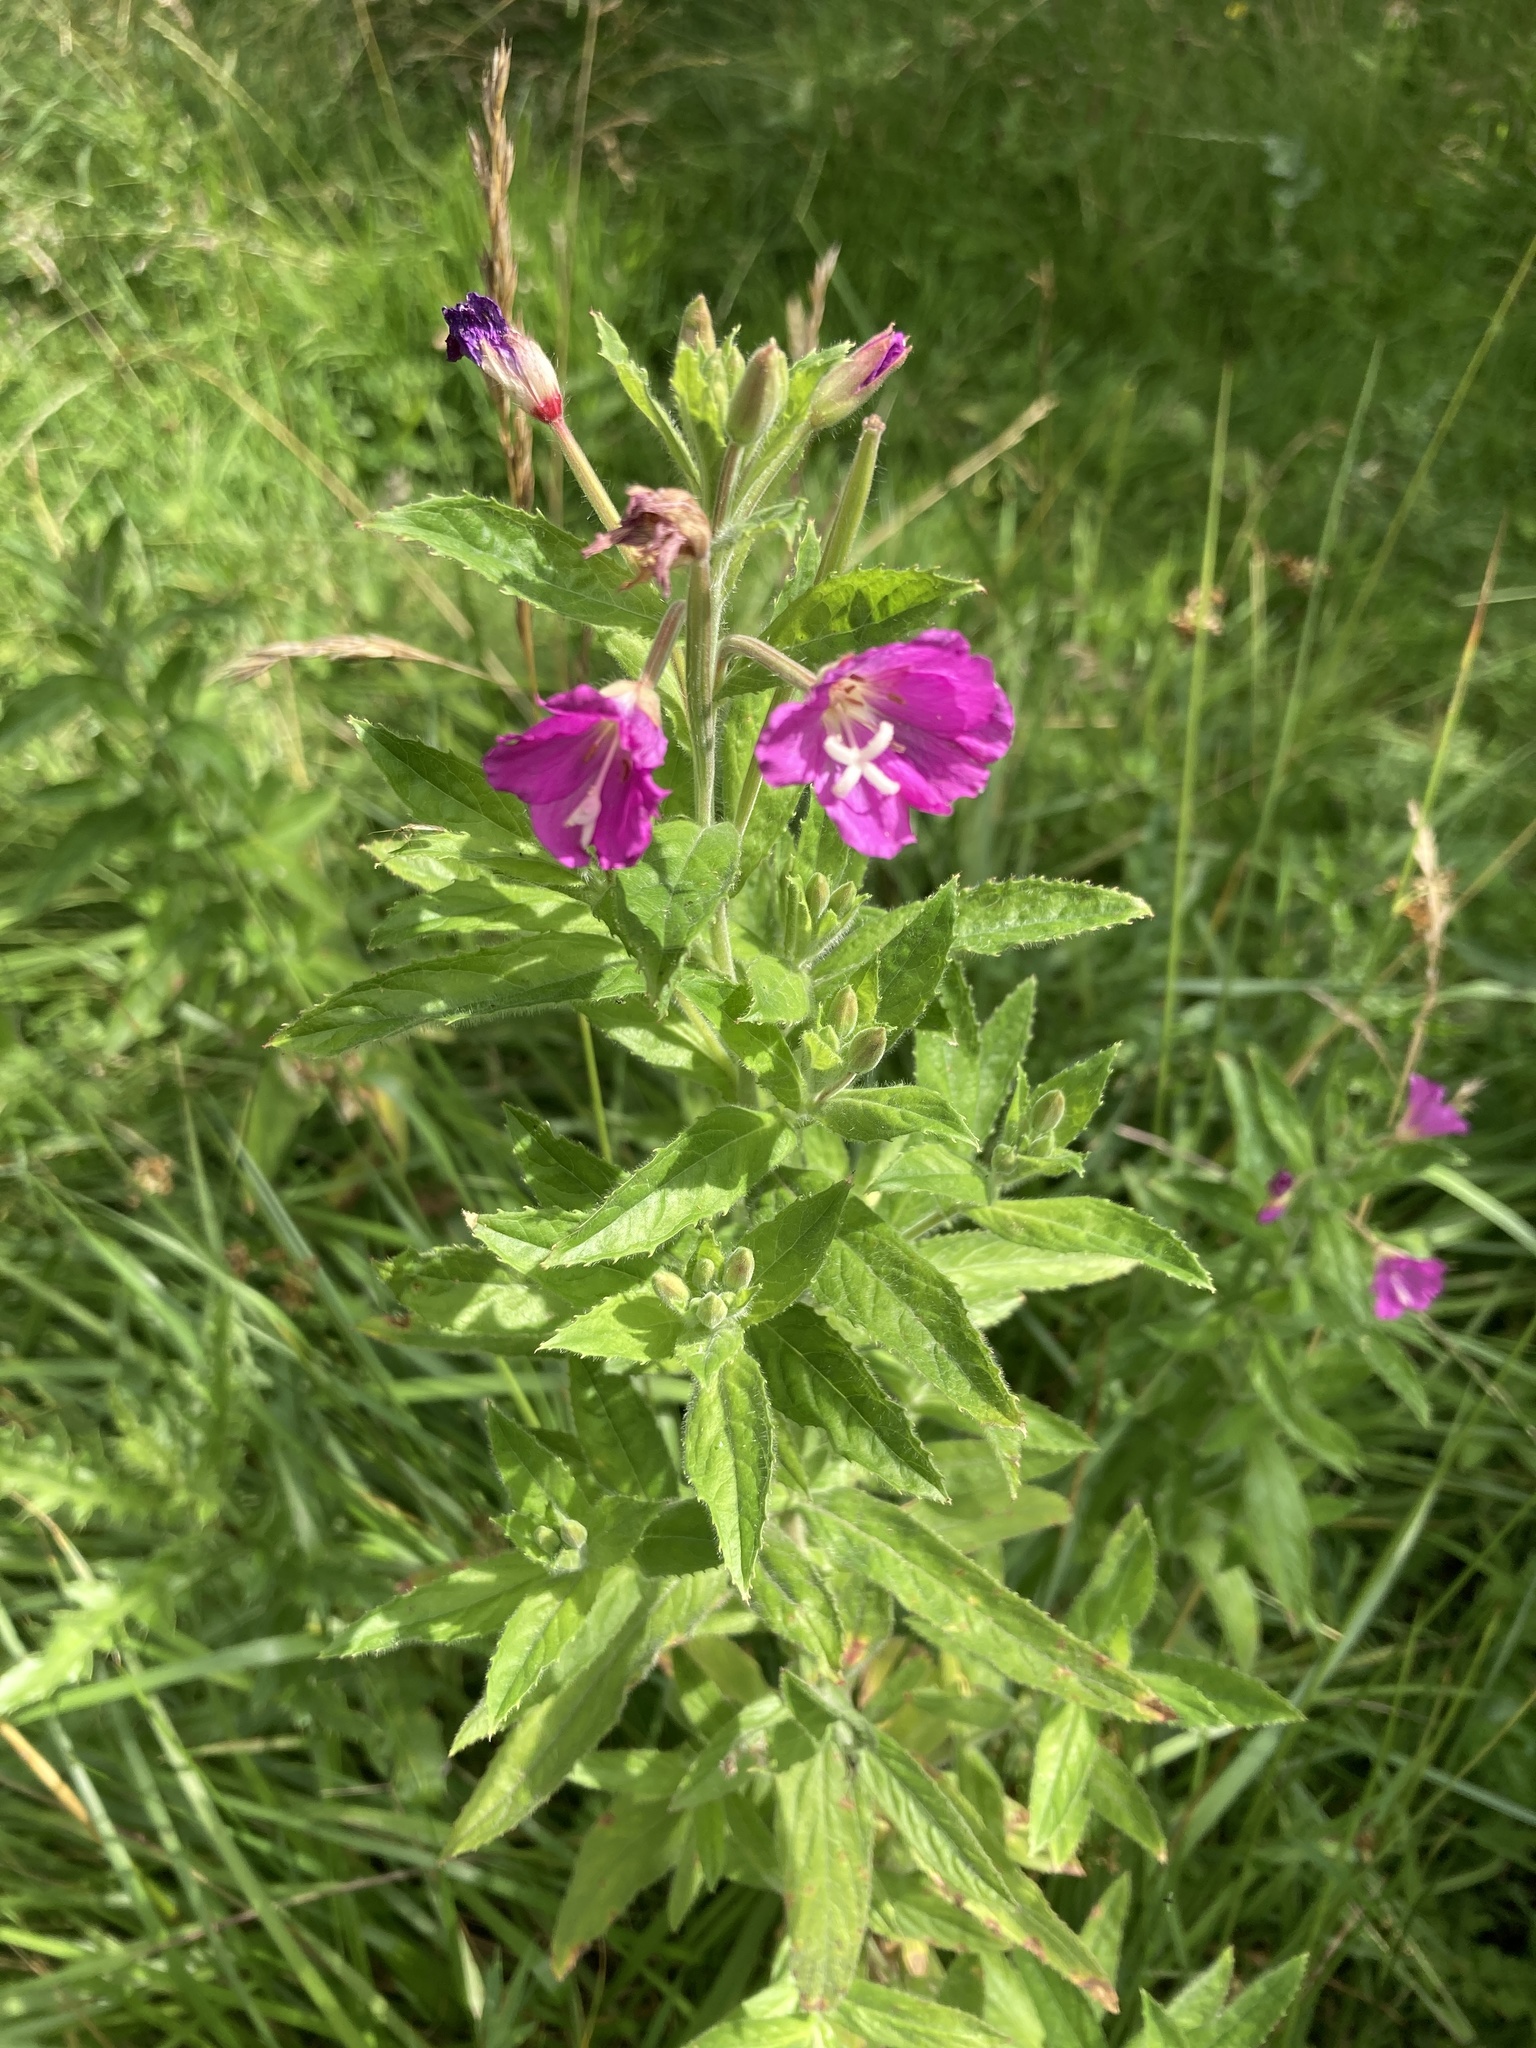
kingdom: Plantae
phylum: Tracheophyta
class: Magnoliopsida
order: Myrtales
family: Onagraceae
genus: Epilobium
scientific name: Epilobium hirsutum
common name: Great willowherb
